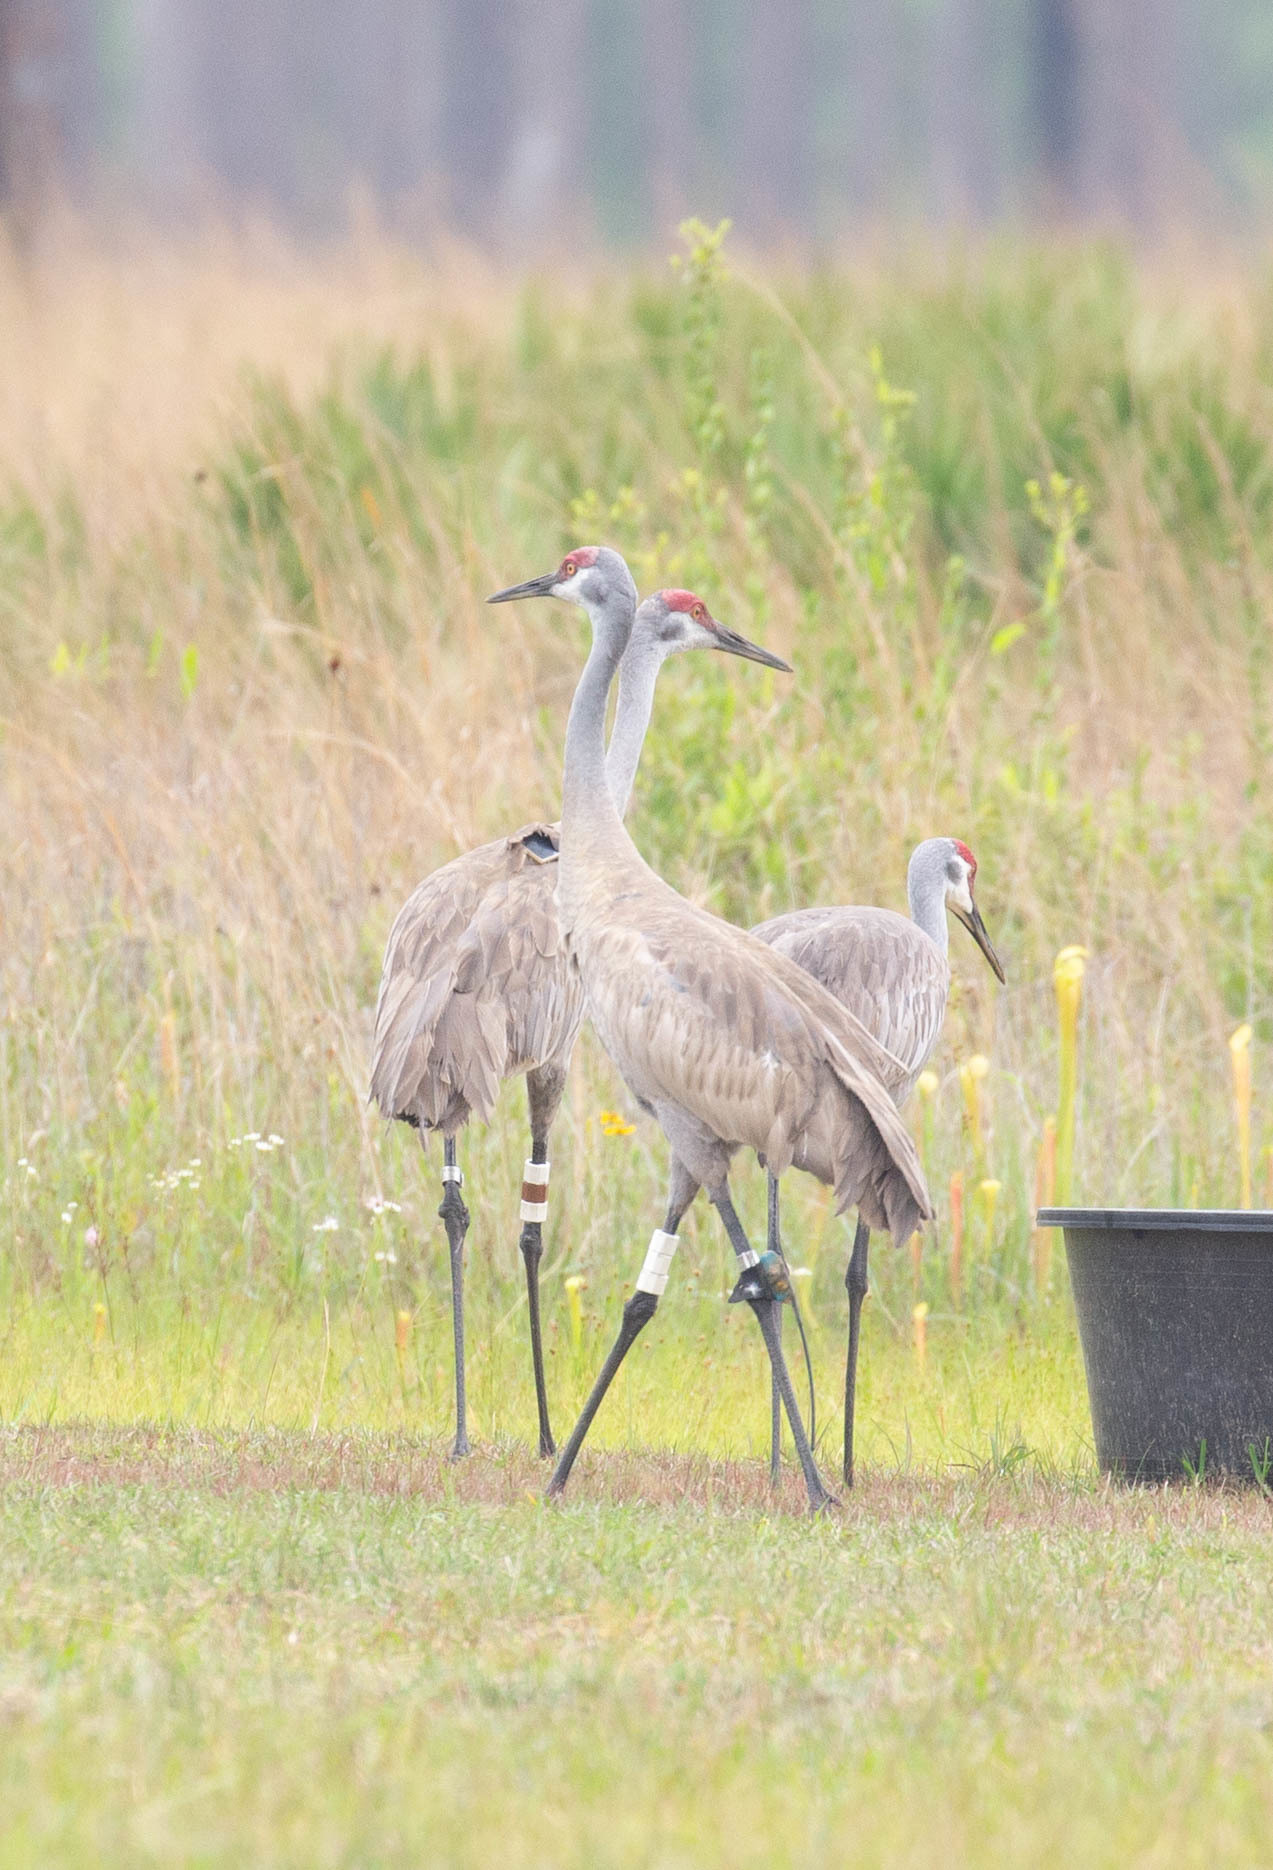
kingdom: Animalia
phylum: Chordata
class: Aves
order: Gruiformes
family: Gruidae
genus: Grus
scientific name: Grus canadensis
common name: Sandhill crane
